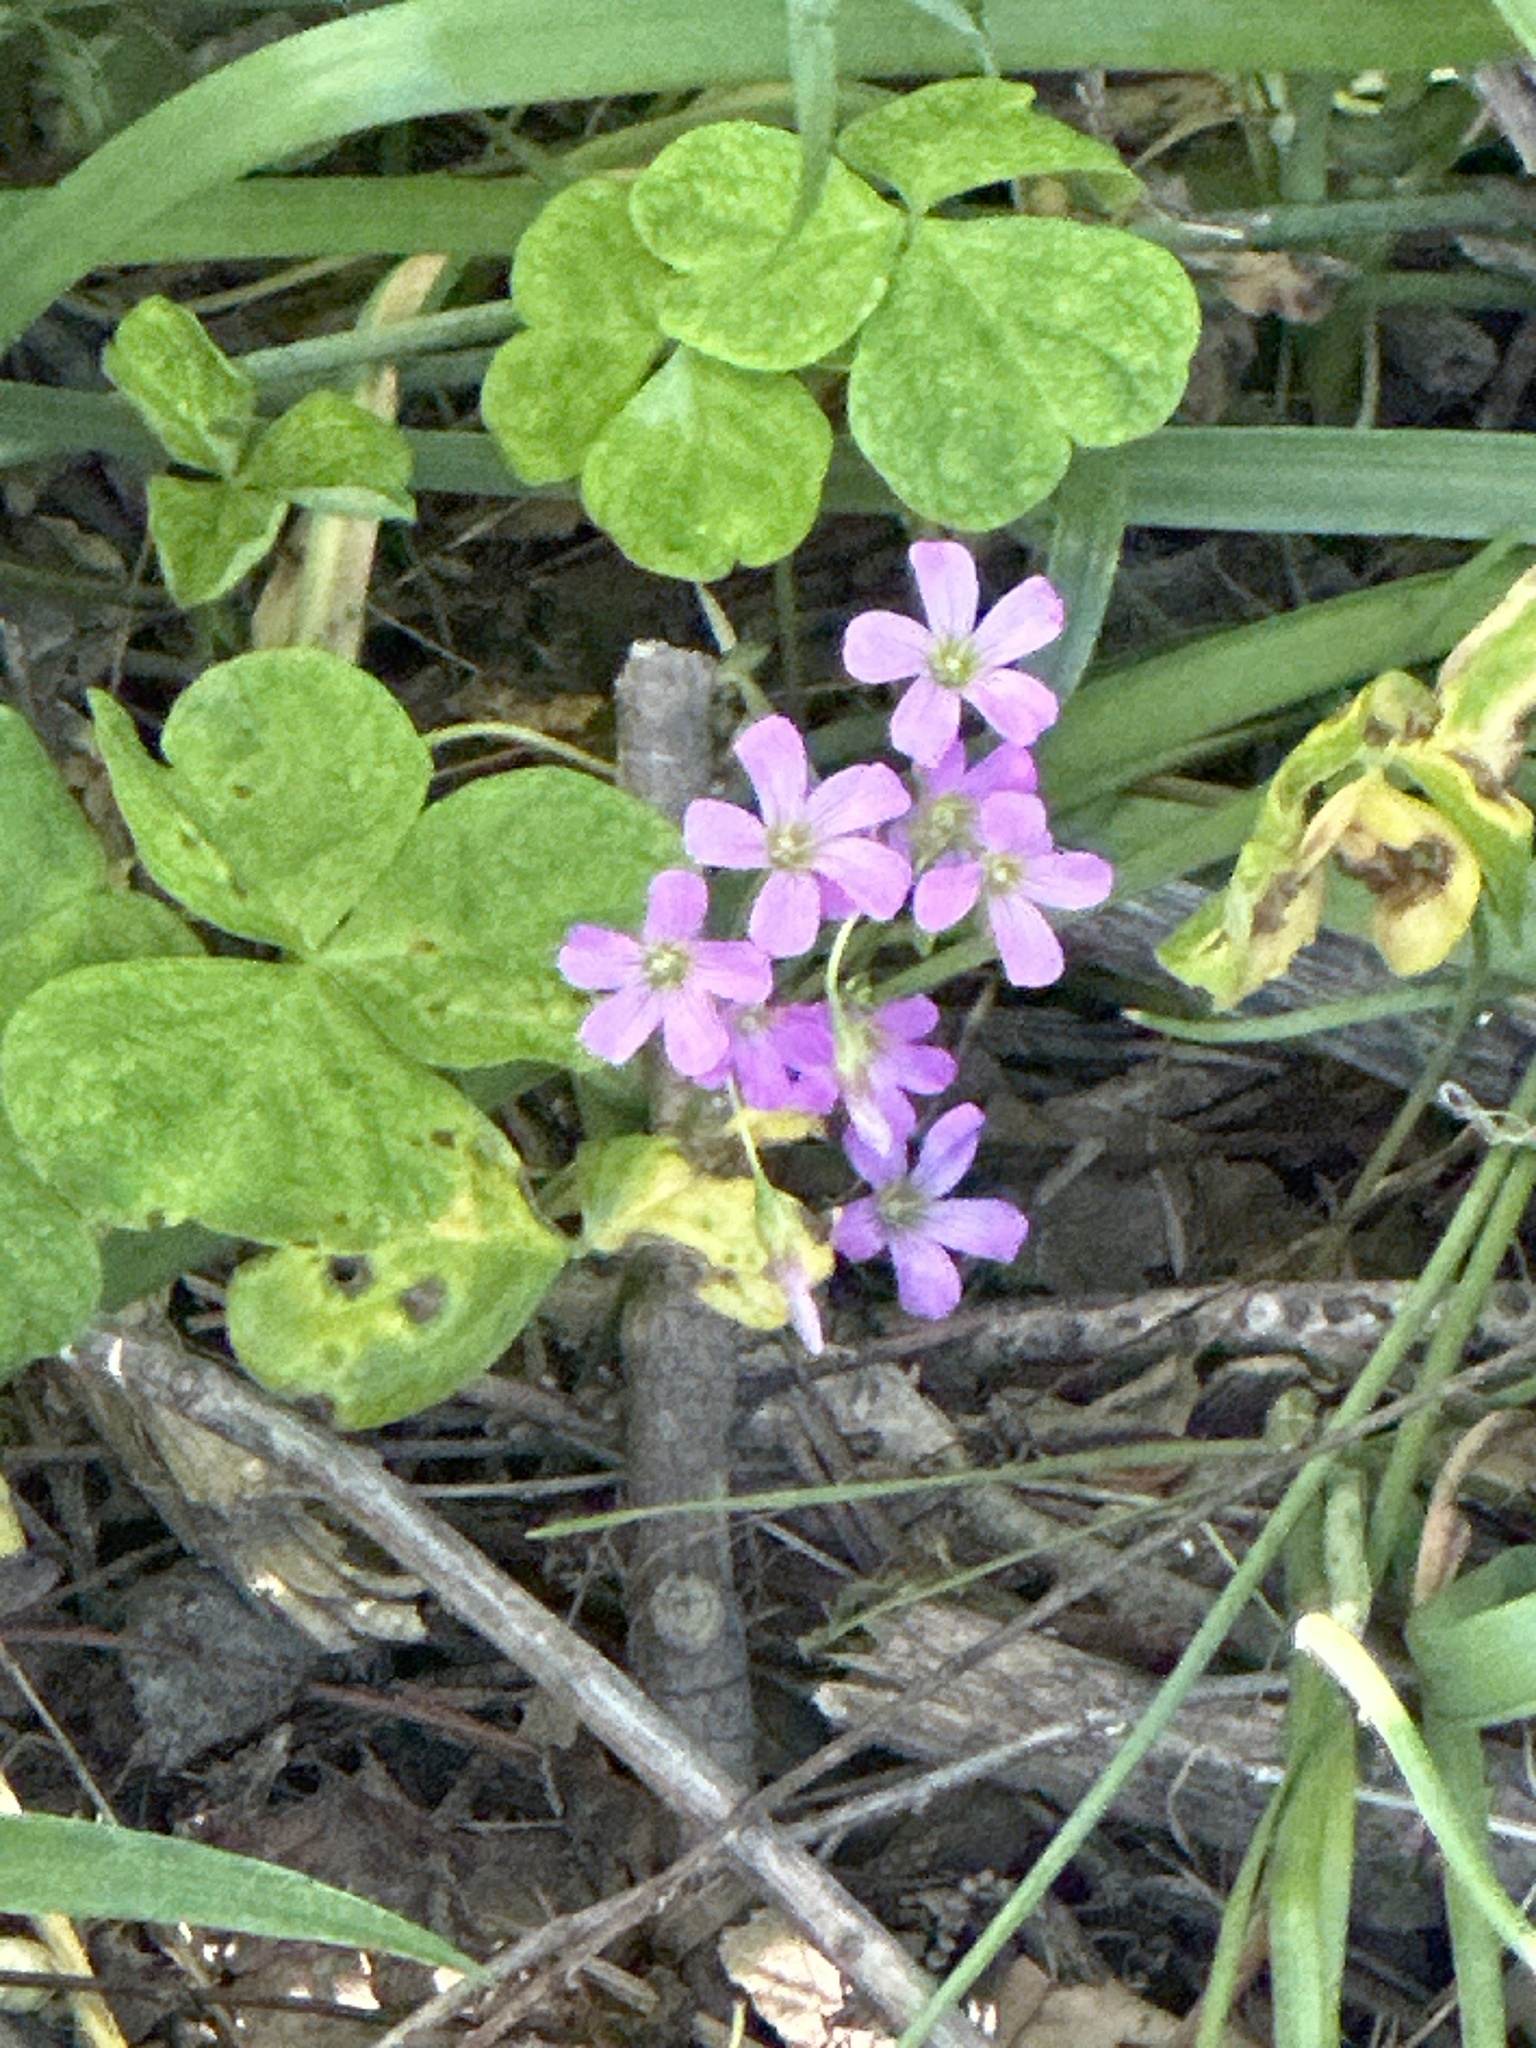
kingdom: Plantae
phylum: Tracheophyta
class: Magnoliopsida
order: Oxalidales
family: Oxalidaceae
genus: Oxalis
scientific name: Oxalis debilis
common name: Large-flowered pink-sorrel
